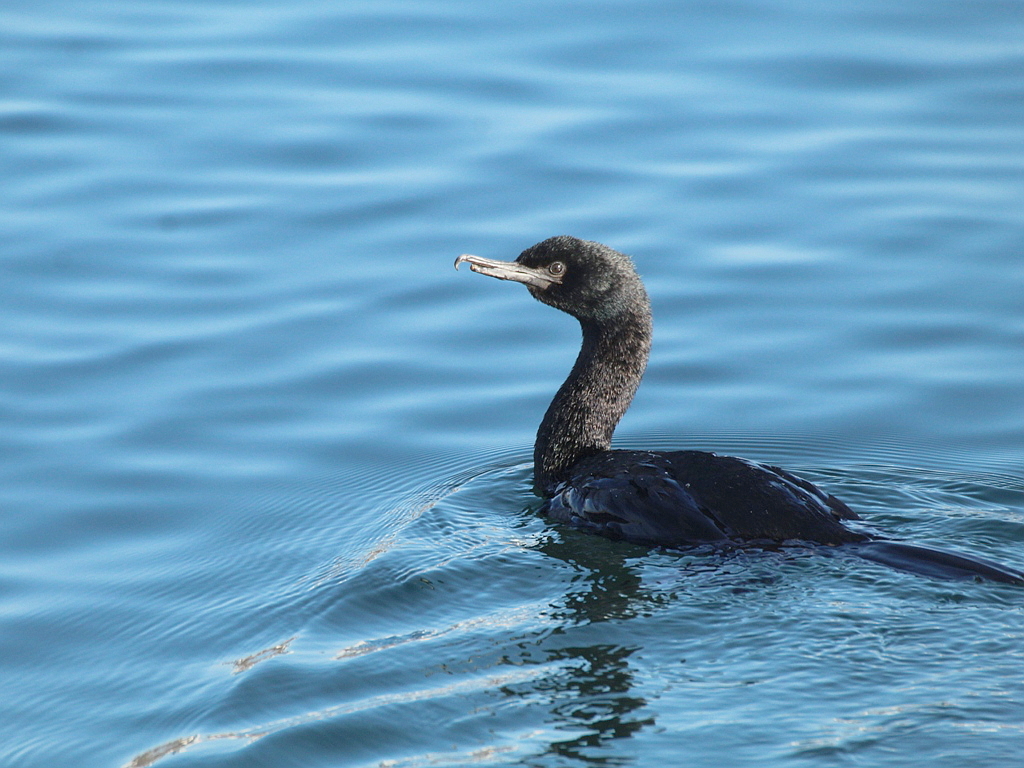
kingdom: Animalia
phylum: Chordata
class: Aves
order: Suliformes
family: Phalacrocoracidae
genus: Phalacrocorax
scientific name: Phalacrocorax pelagicus
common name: Pelagic cormorant
